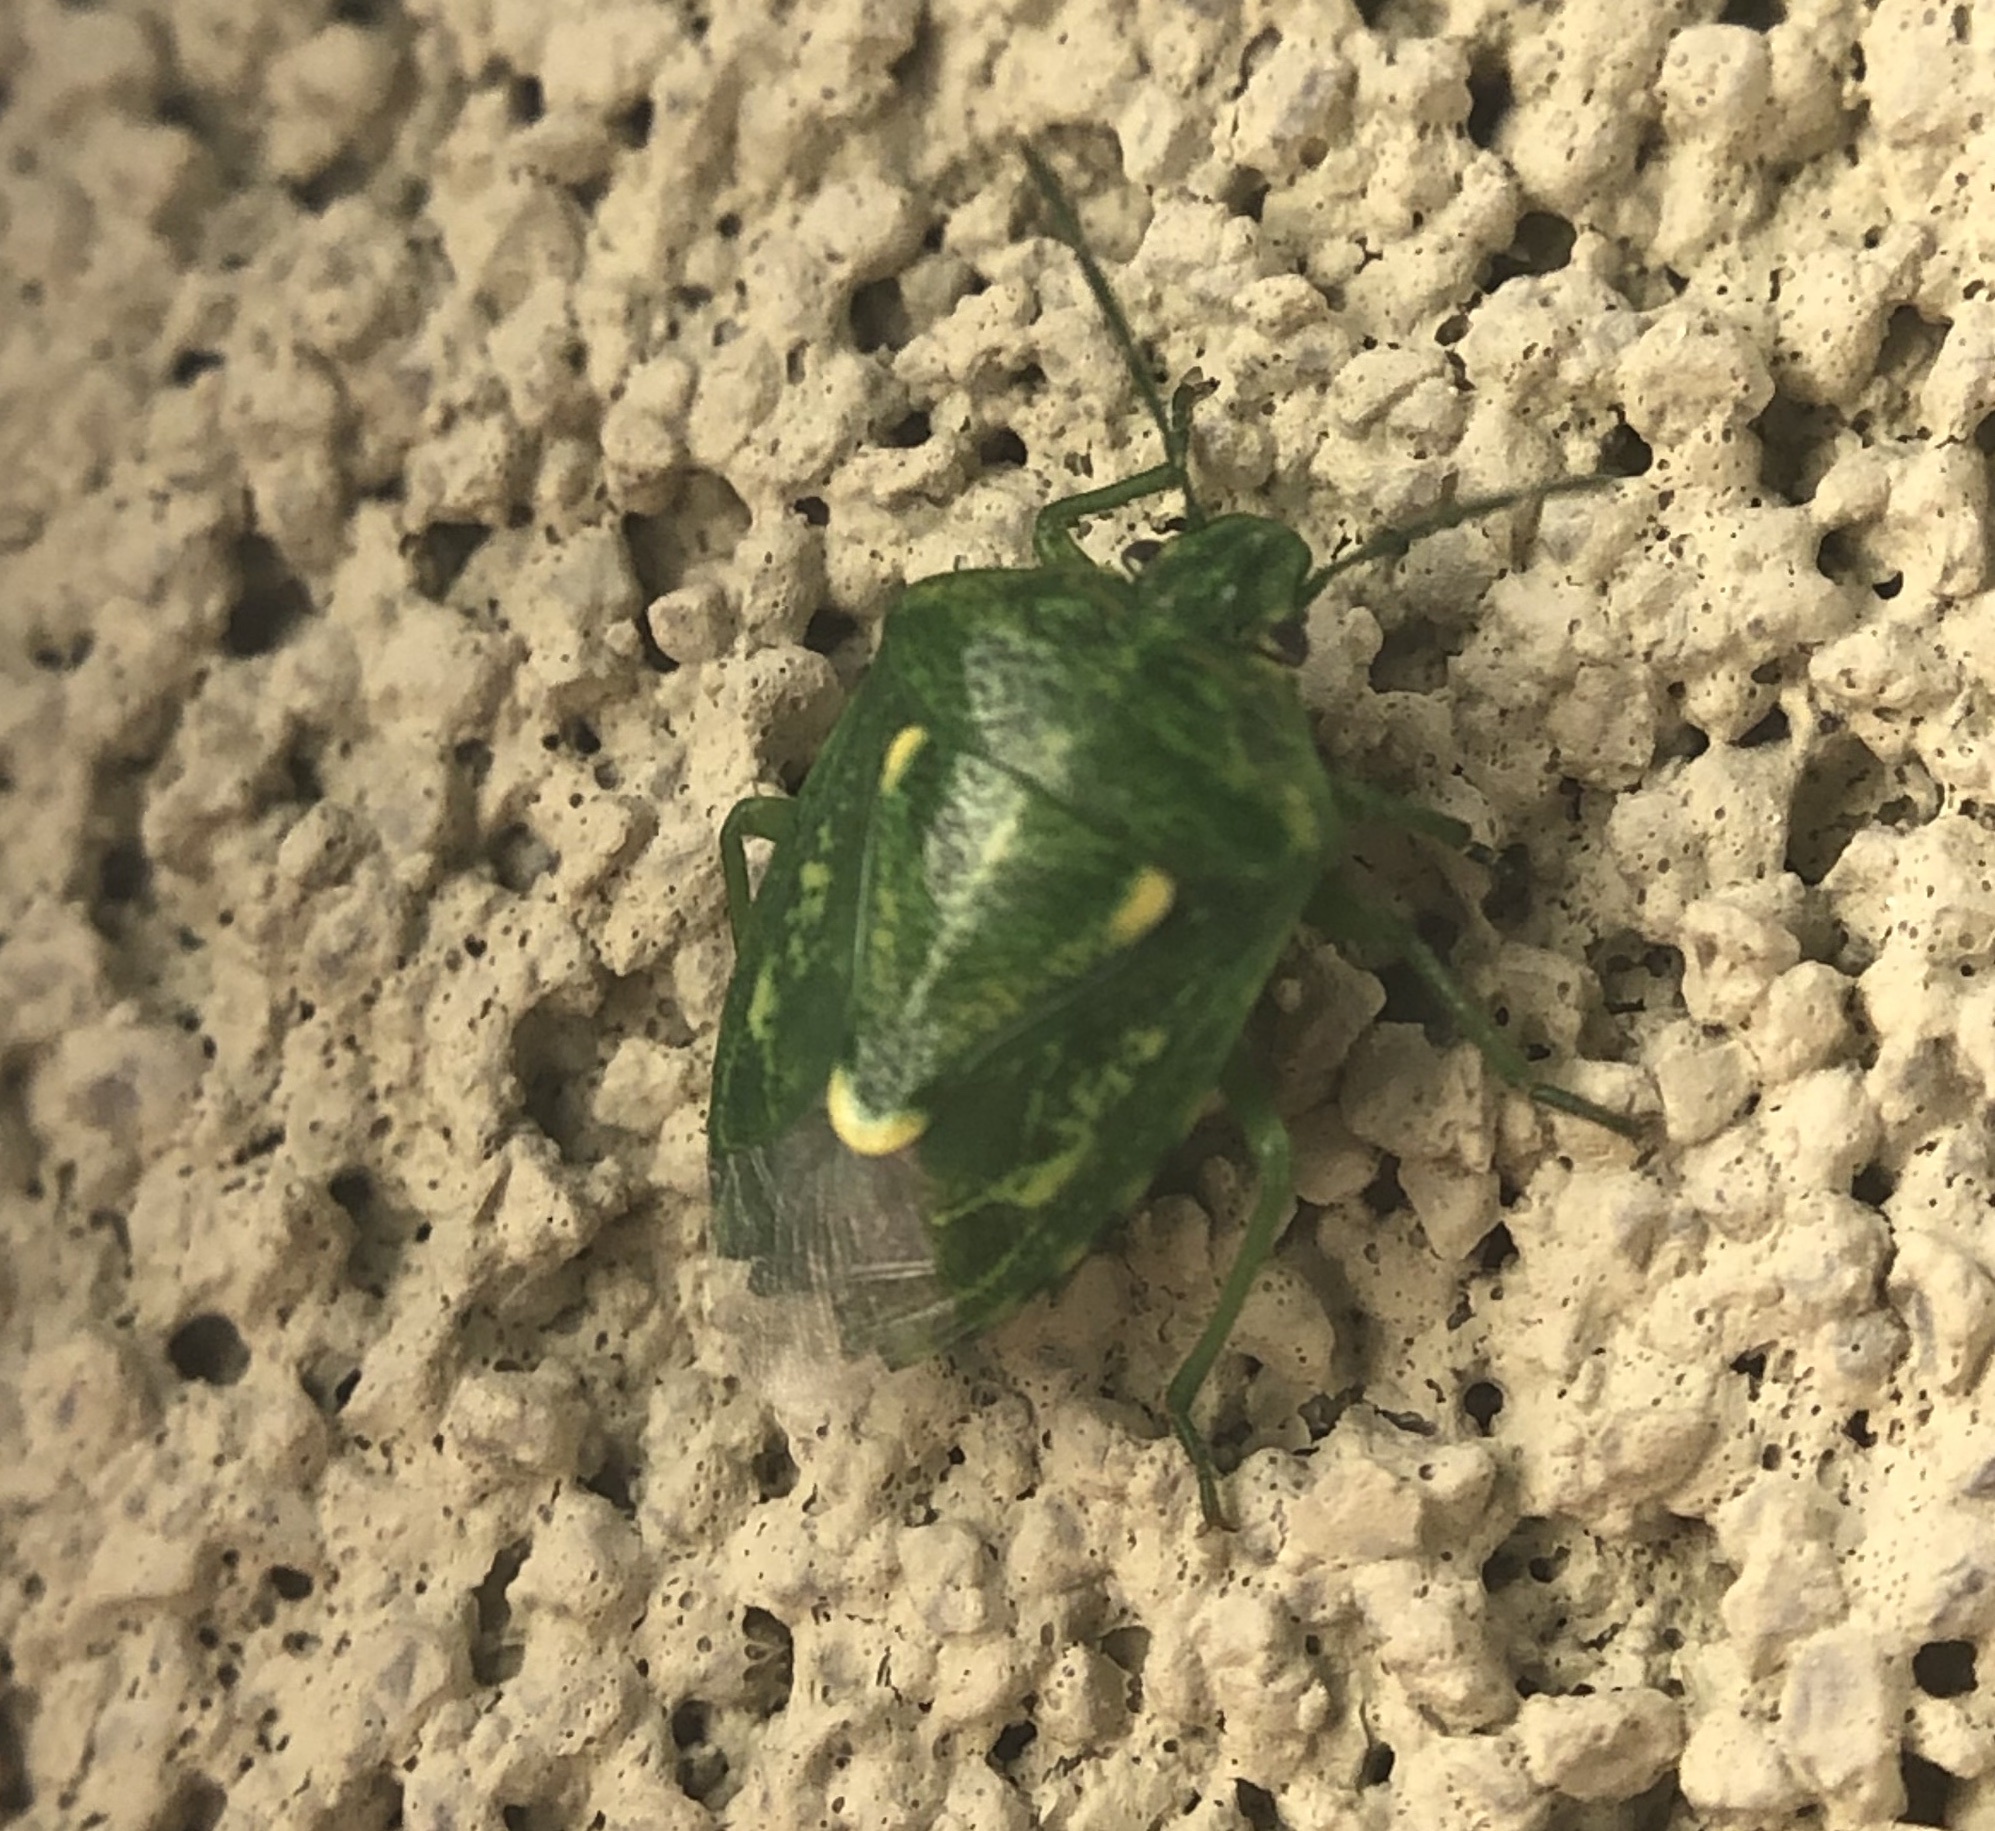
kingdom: Animalia
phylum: Arthropoda
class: Insecta
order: Hemiptera
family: Pentatomidae
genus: Banasa
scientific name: Banasa euchlora
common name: Cedar berry bug
